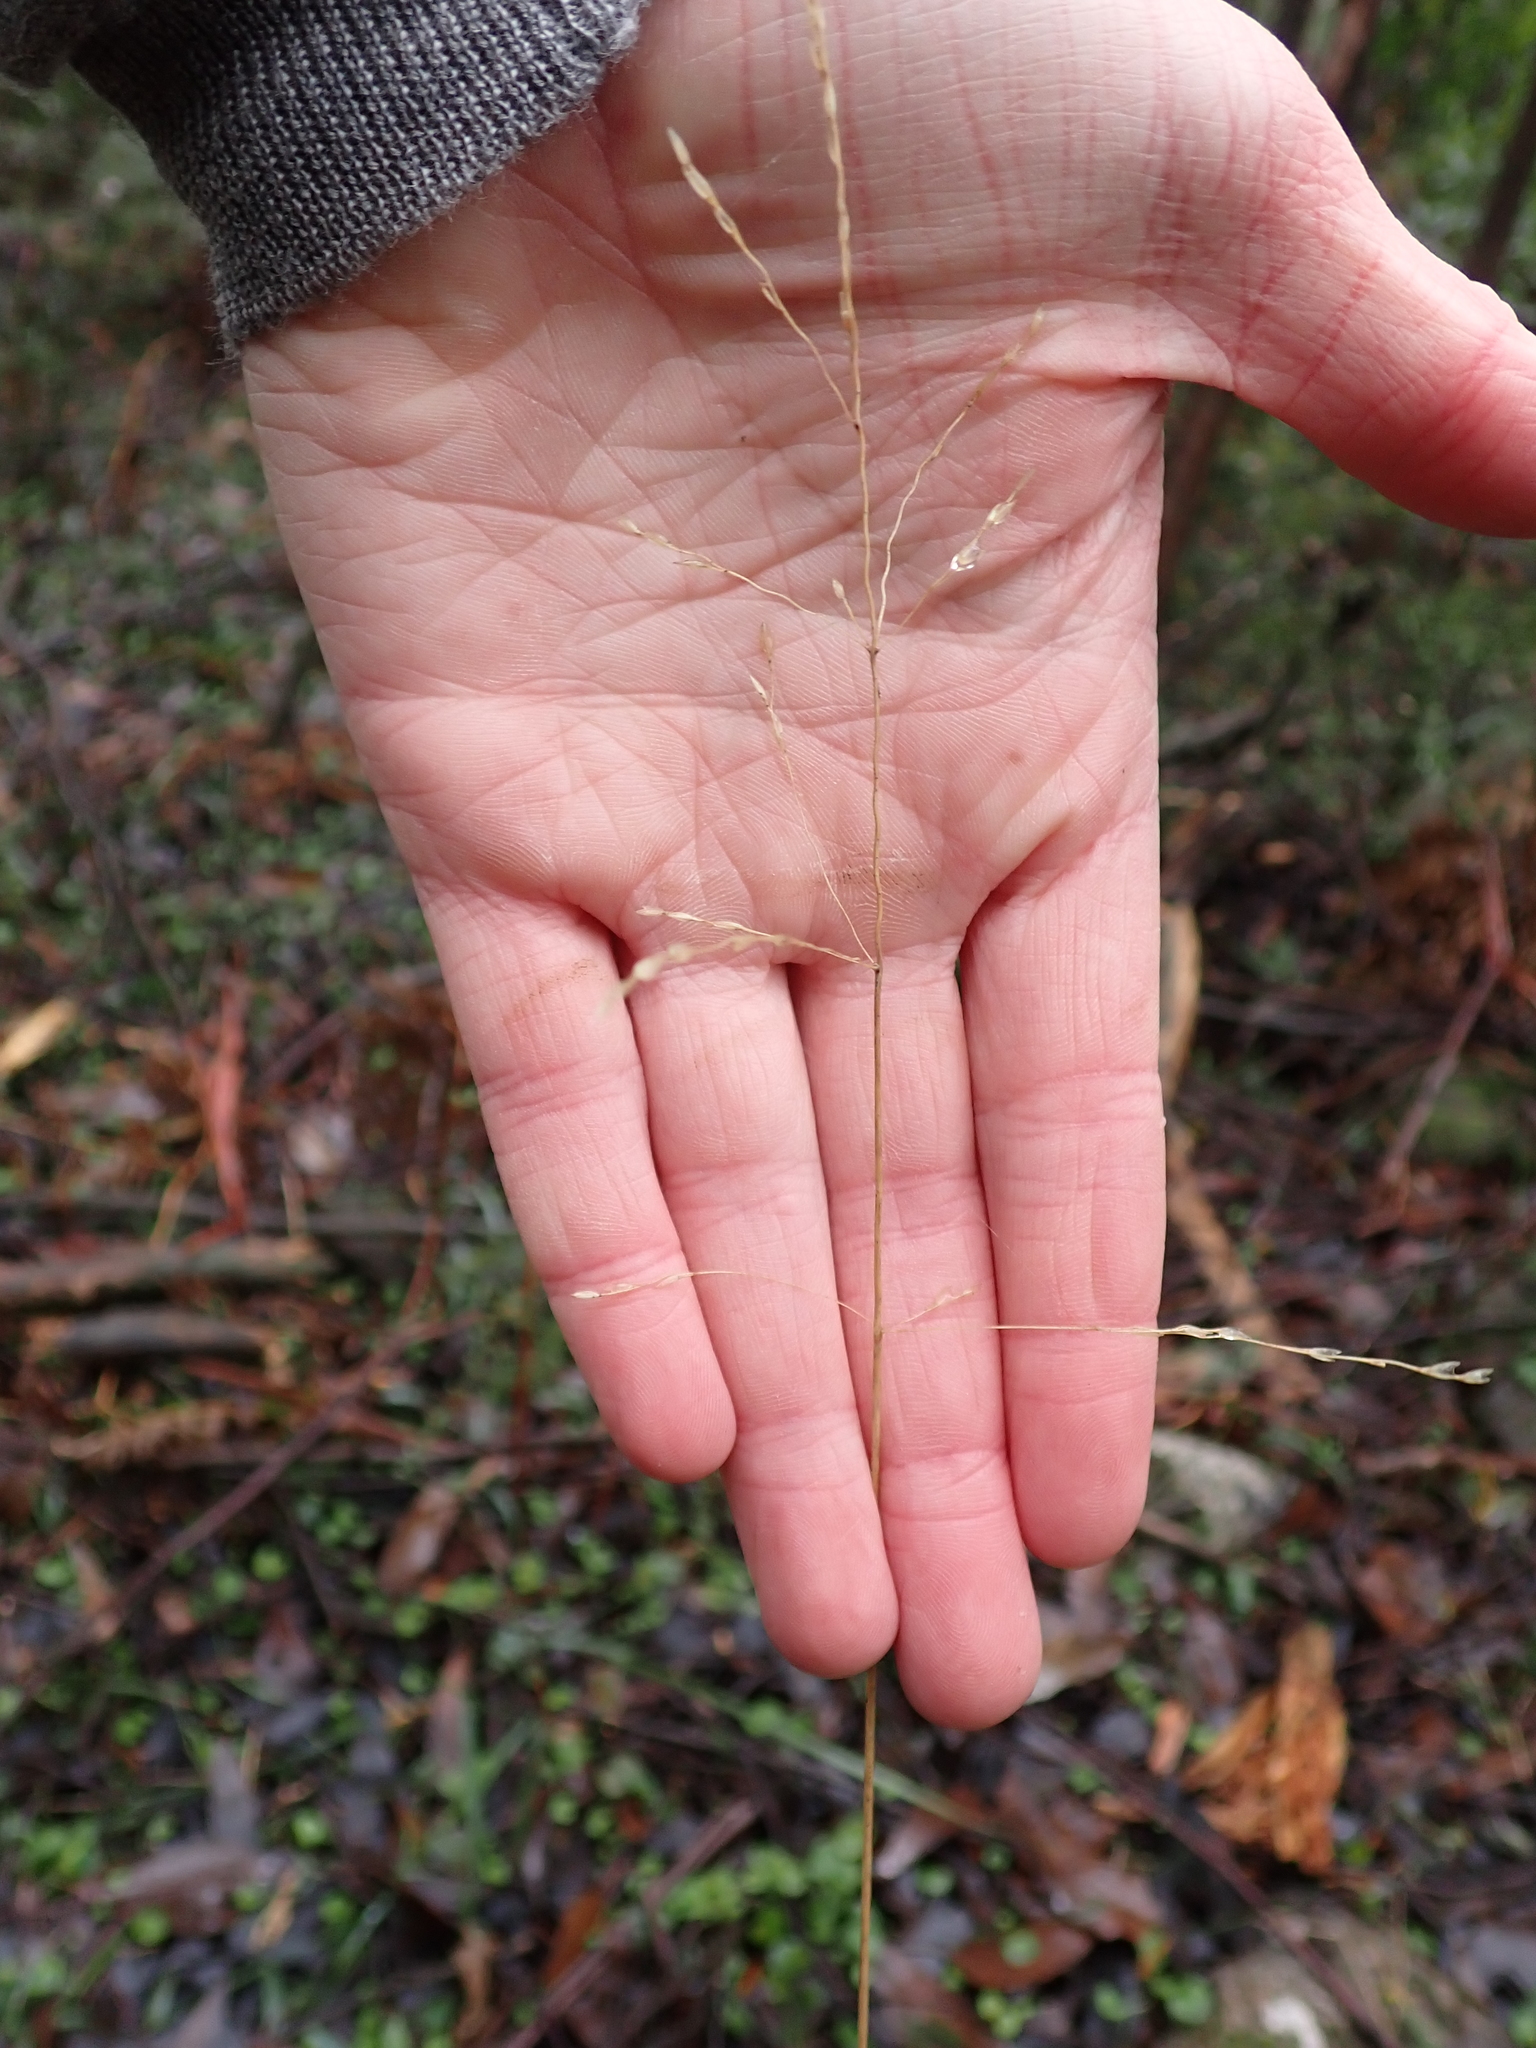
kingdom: Plantae
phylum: Tracheophyta
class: Liliopsida
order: Poales
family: Poaceae
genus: Poa
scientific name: Poa ensiformis
